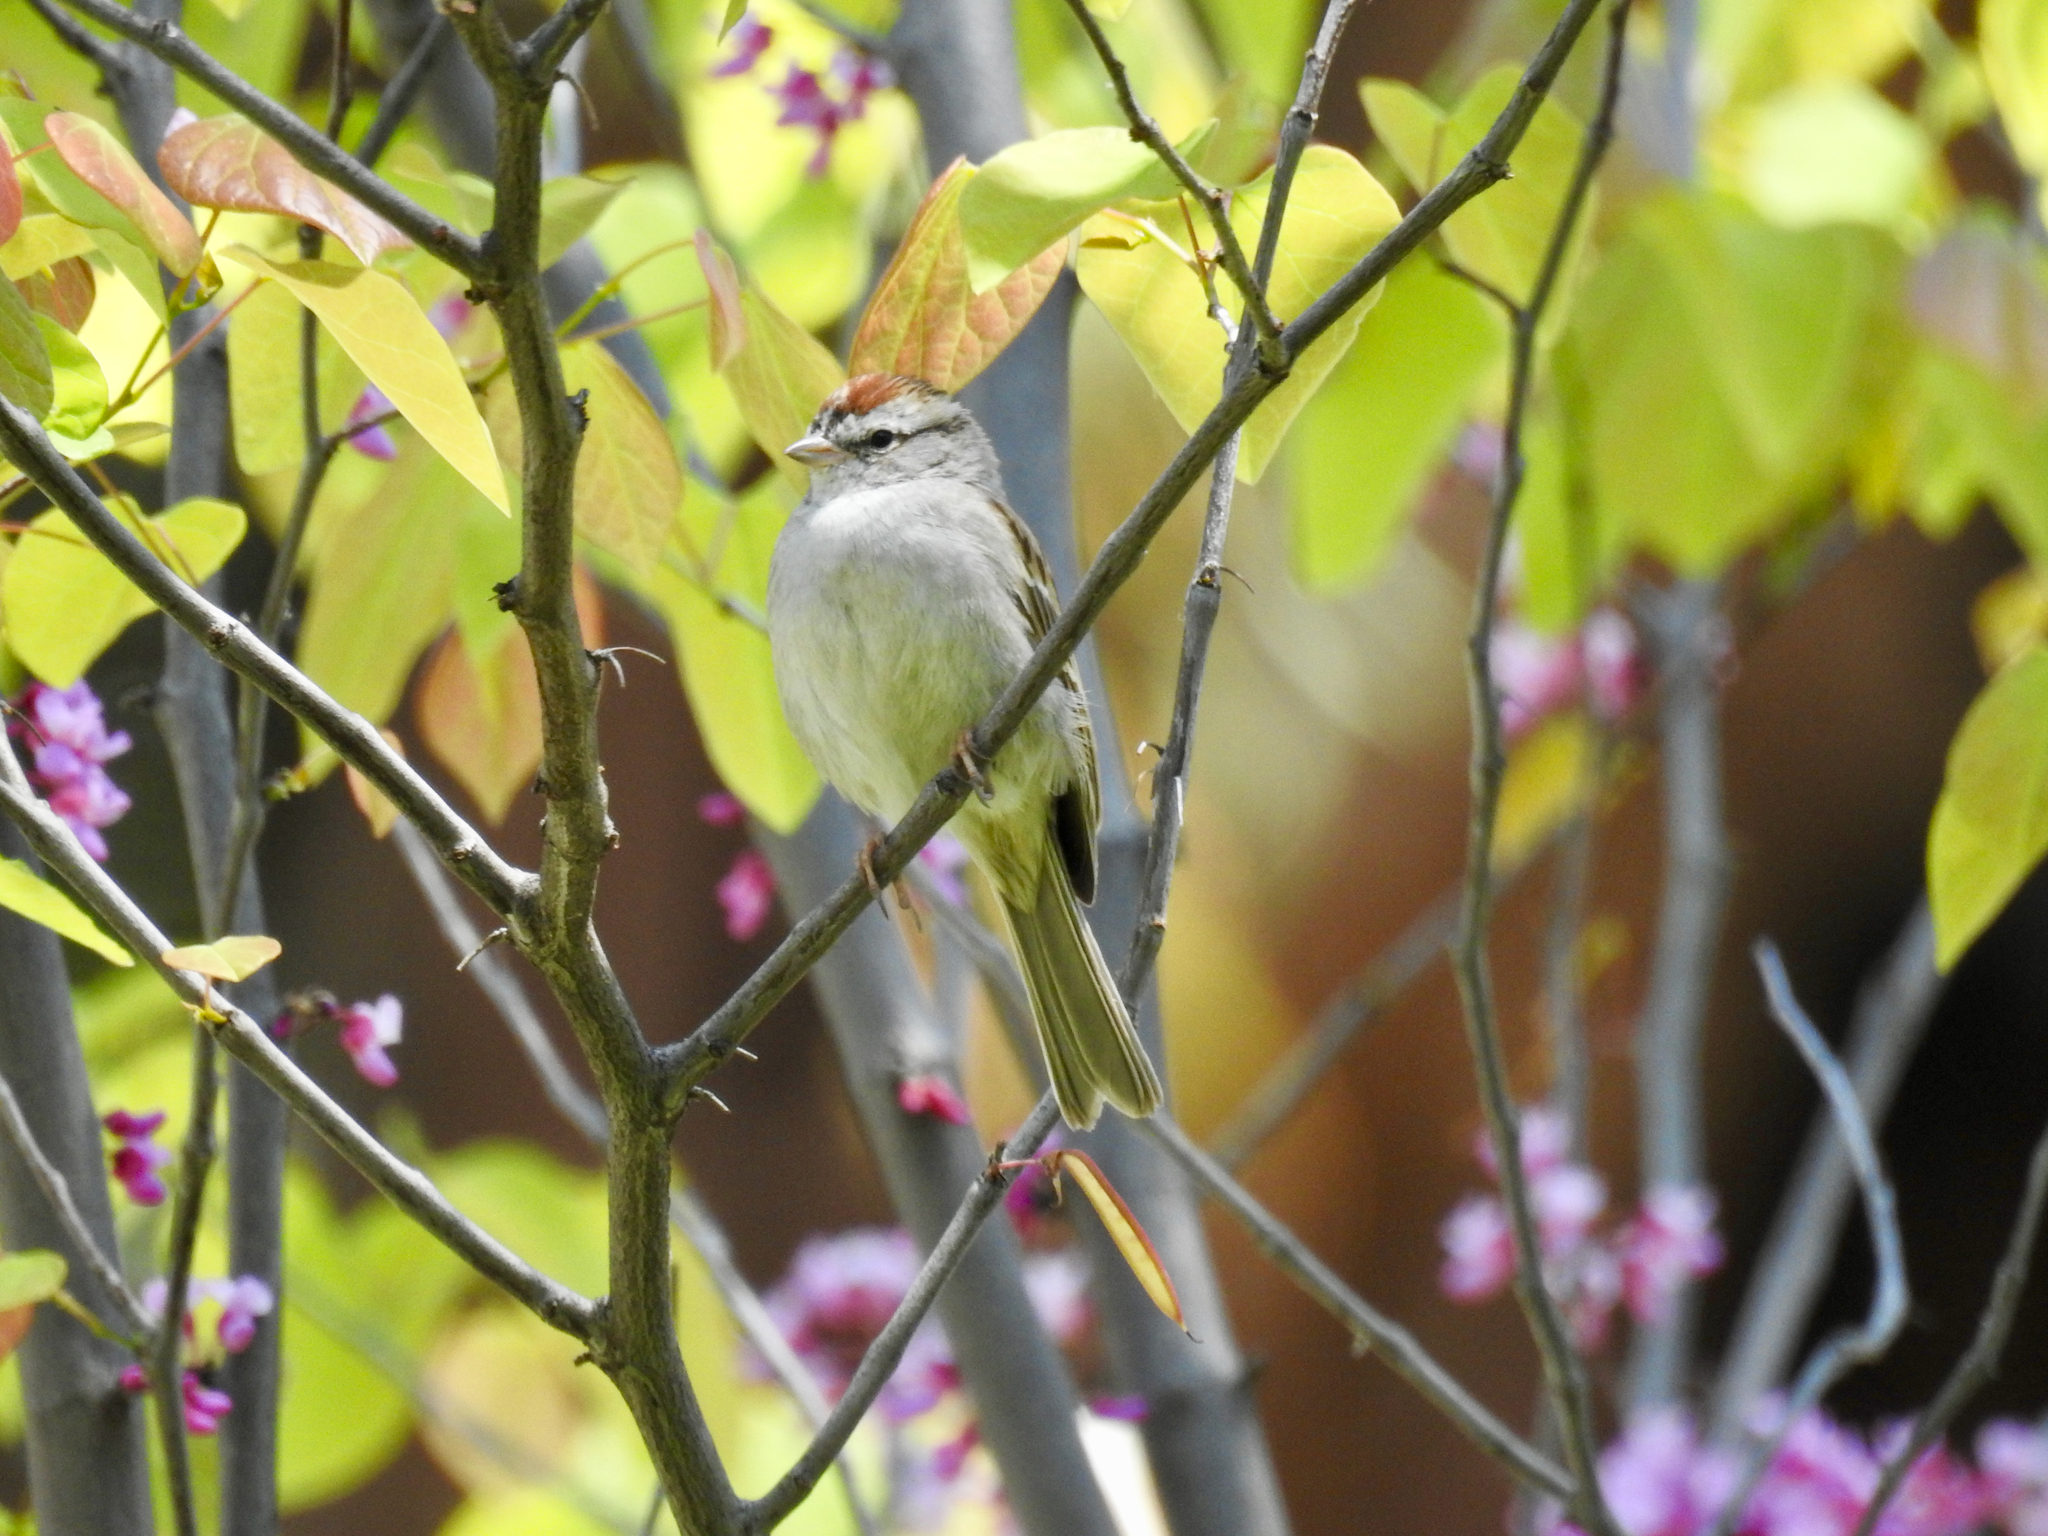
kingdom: Animalia
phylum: Chordata
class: Aves
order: Passeriformes
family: Passerellidae
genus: Spizella
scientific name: Spizella passerina
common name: Chipping sparrow
